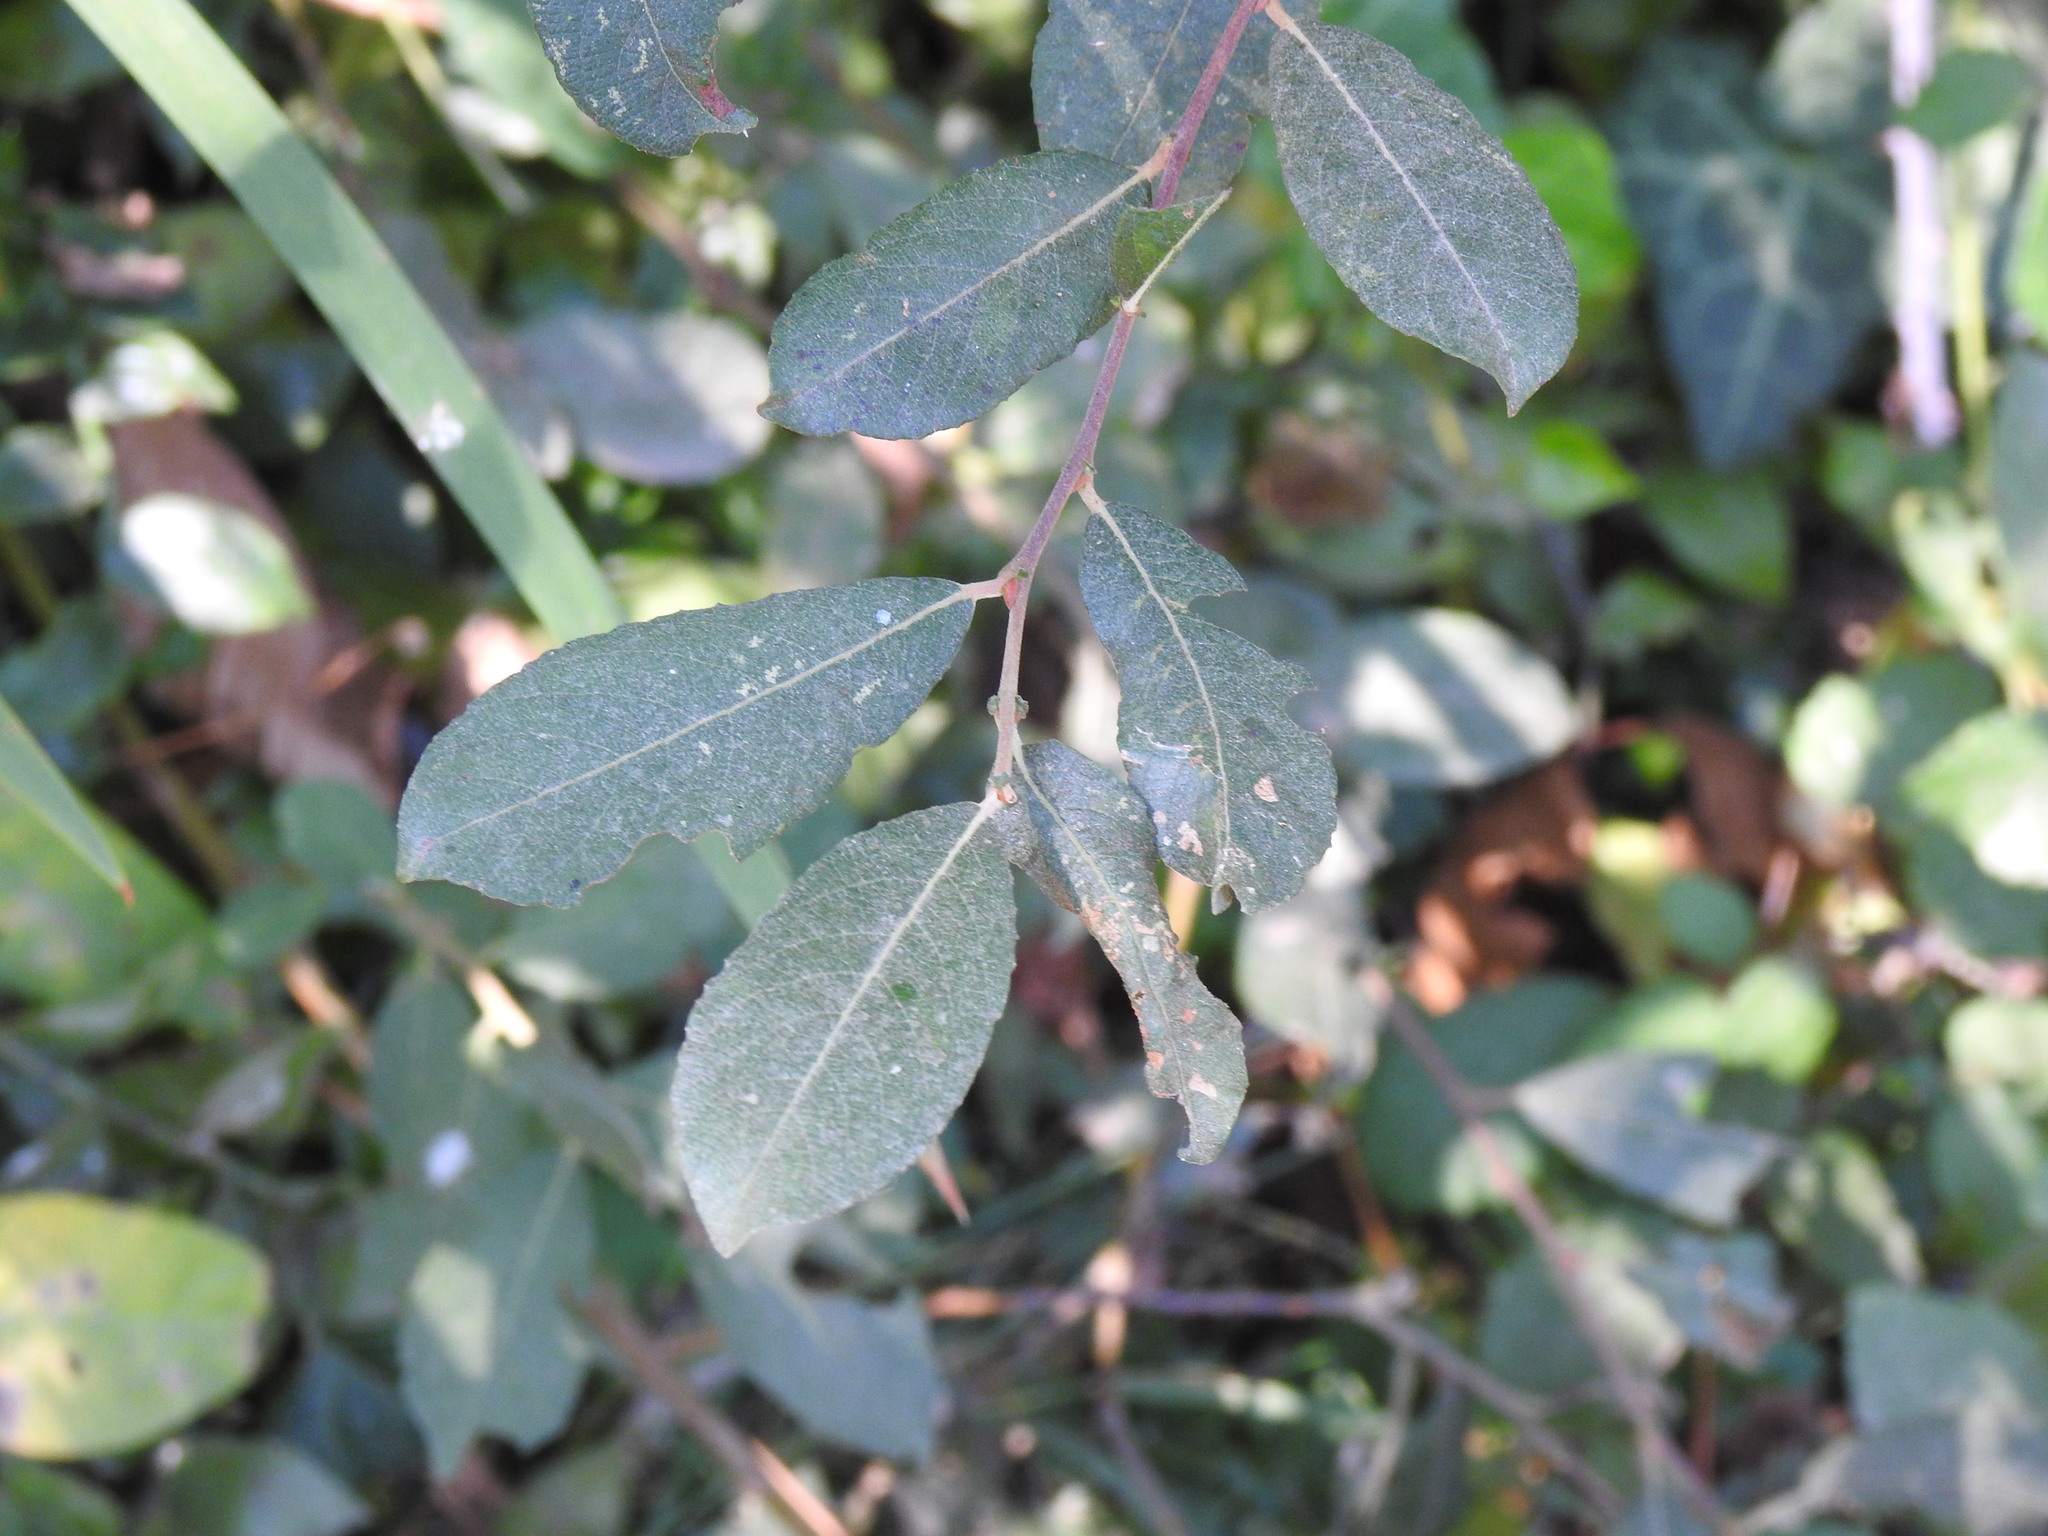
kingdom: Plantae
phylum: Tracheophyta
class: Magnoliopsida
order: Malpighiales
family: Salicaceae
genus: Salix
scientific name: Salix atrocinerea
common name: Rusty willow
